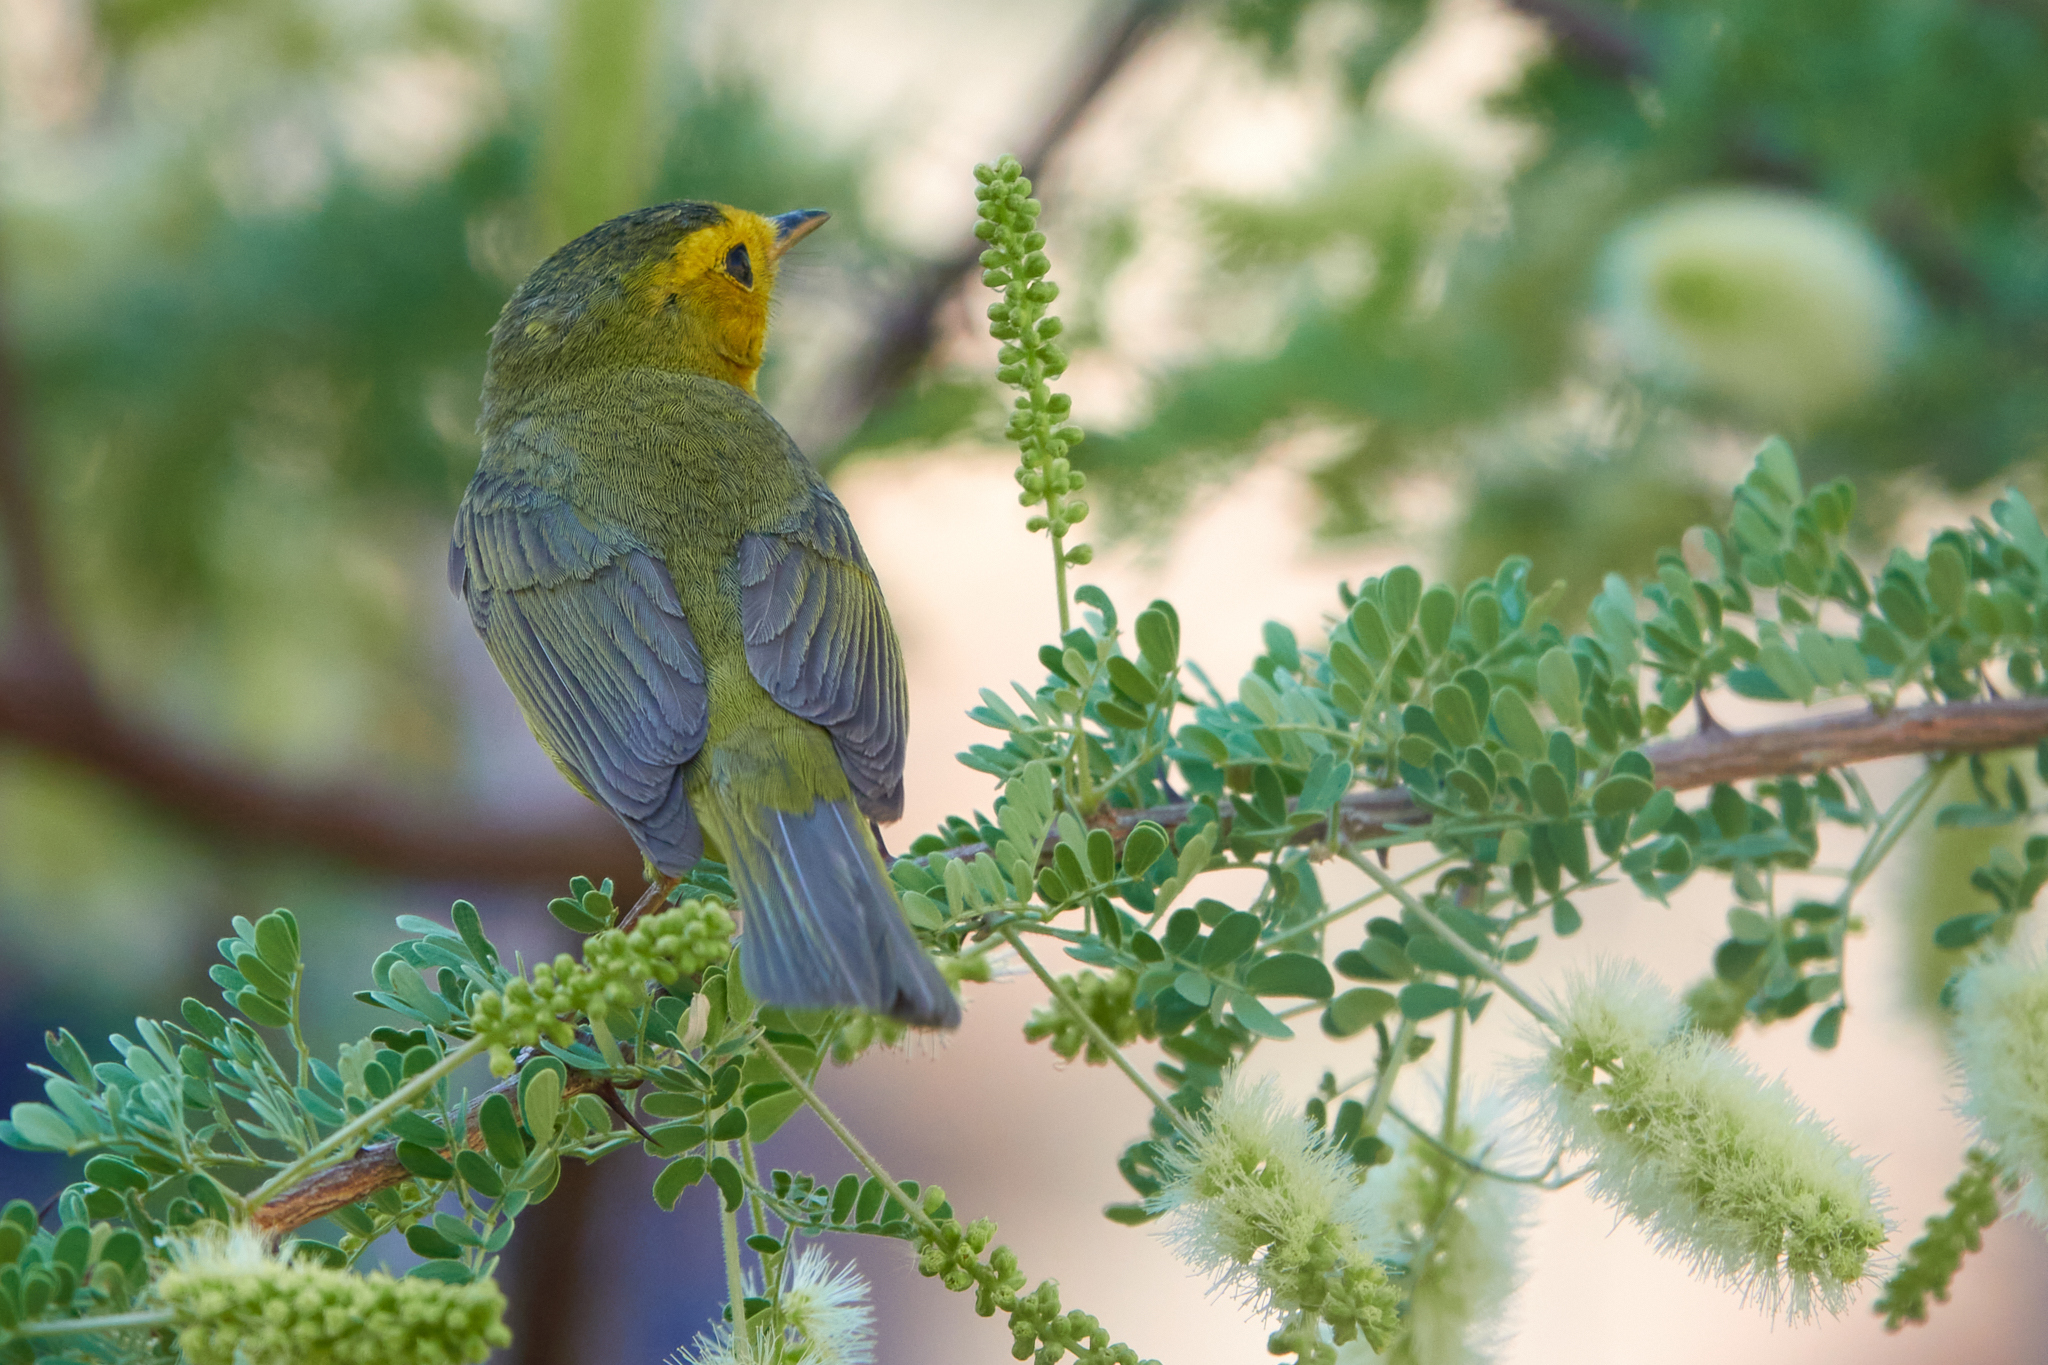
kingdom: Animalia
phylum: Chordata
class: Aves
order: Passeriformes
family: Parulidae
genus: Cardellina
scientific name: Cardellina pusilla
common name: Wilson's warbler
